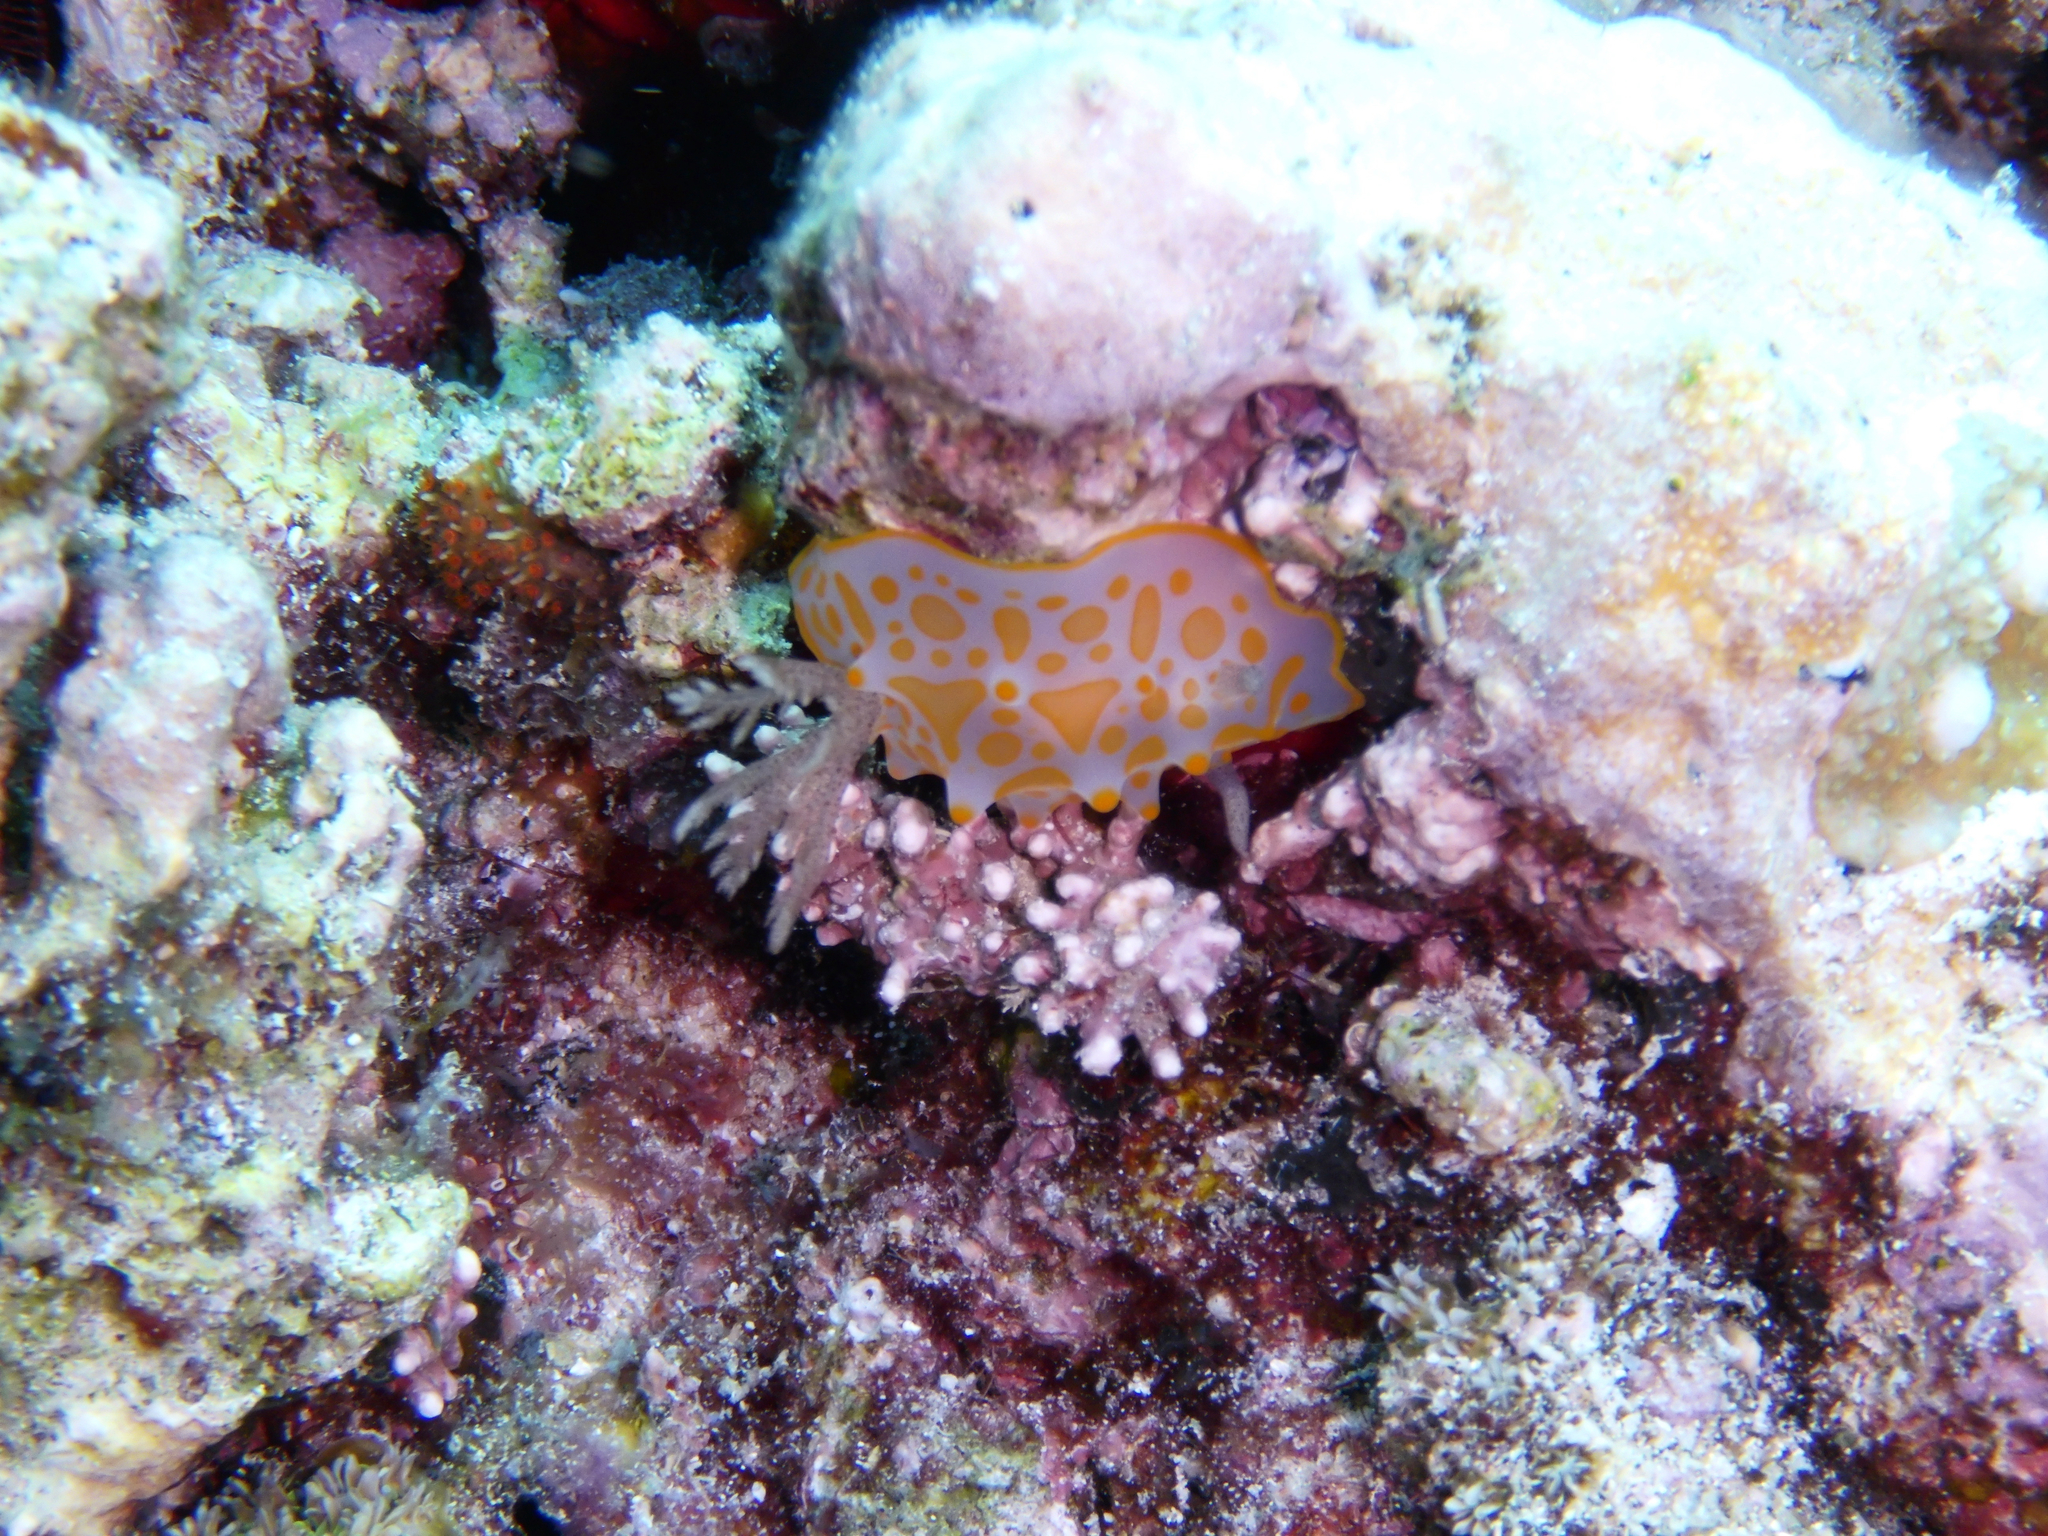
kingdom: Animalia
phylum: Mollusca
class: Gastropoda
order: Nudibranchia
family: Discodorididae
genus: Halgerda
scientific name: Halgerda aurantiomaculata
